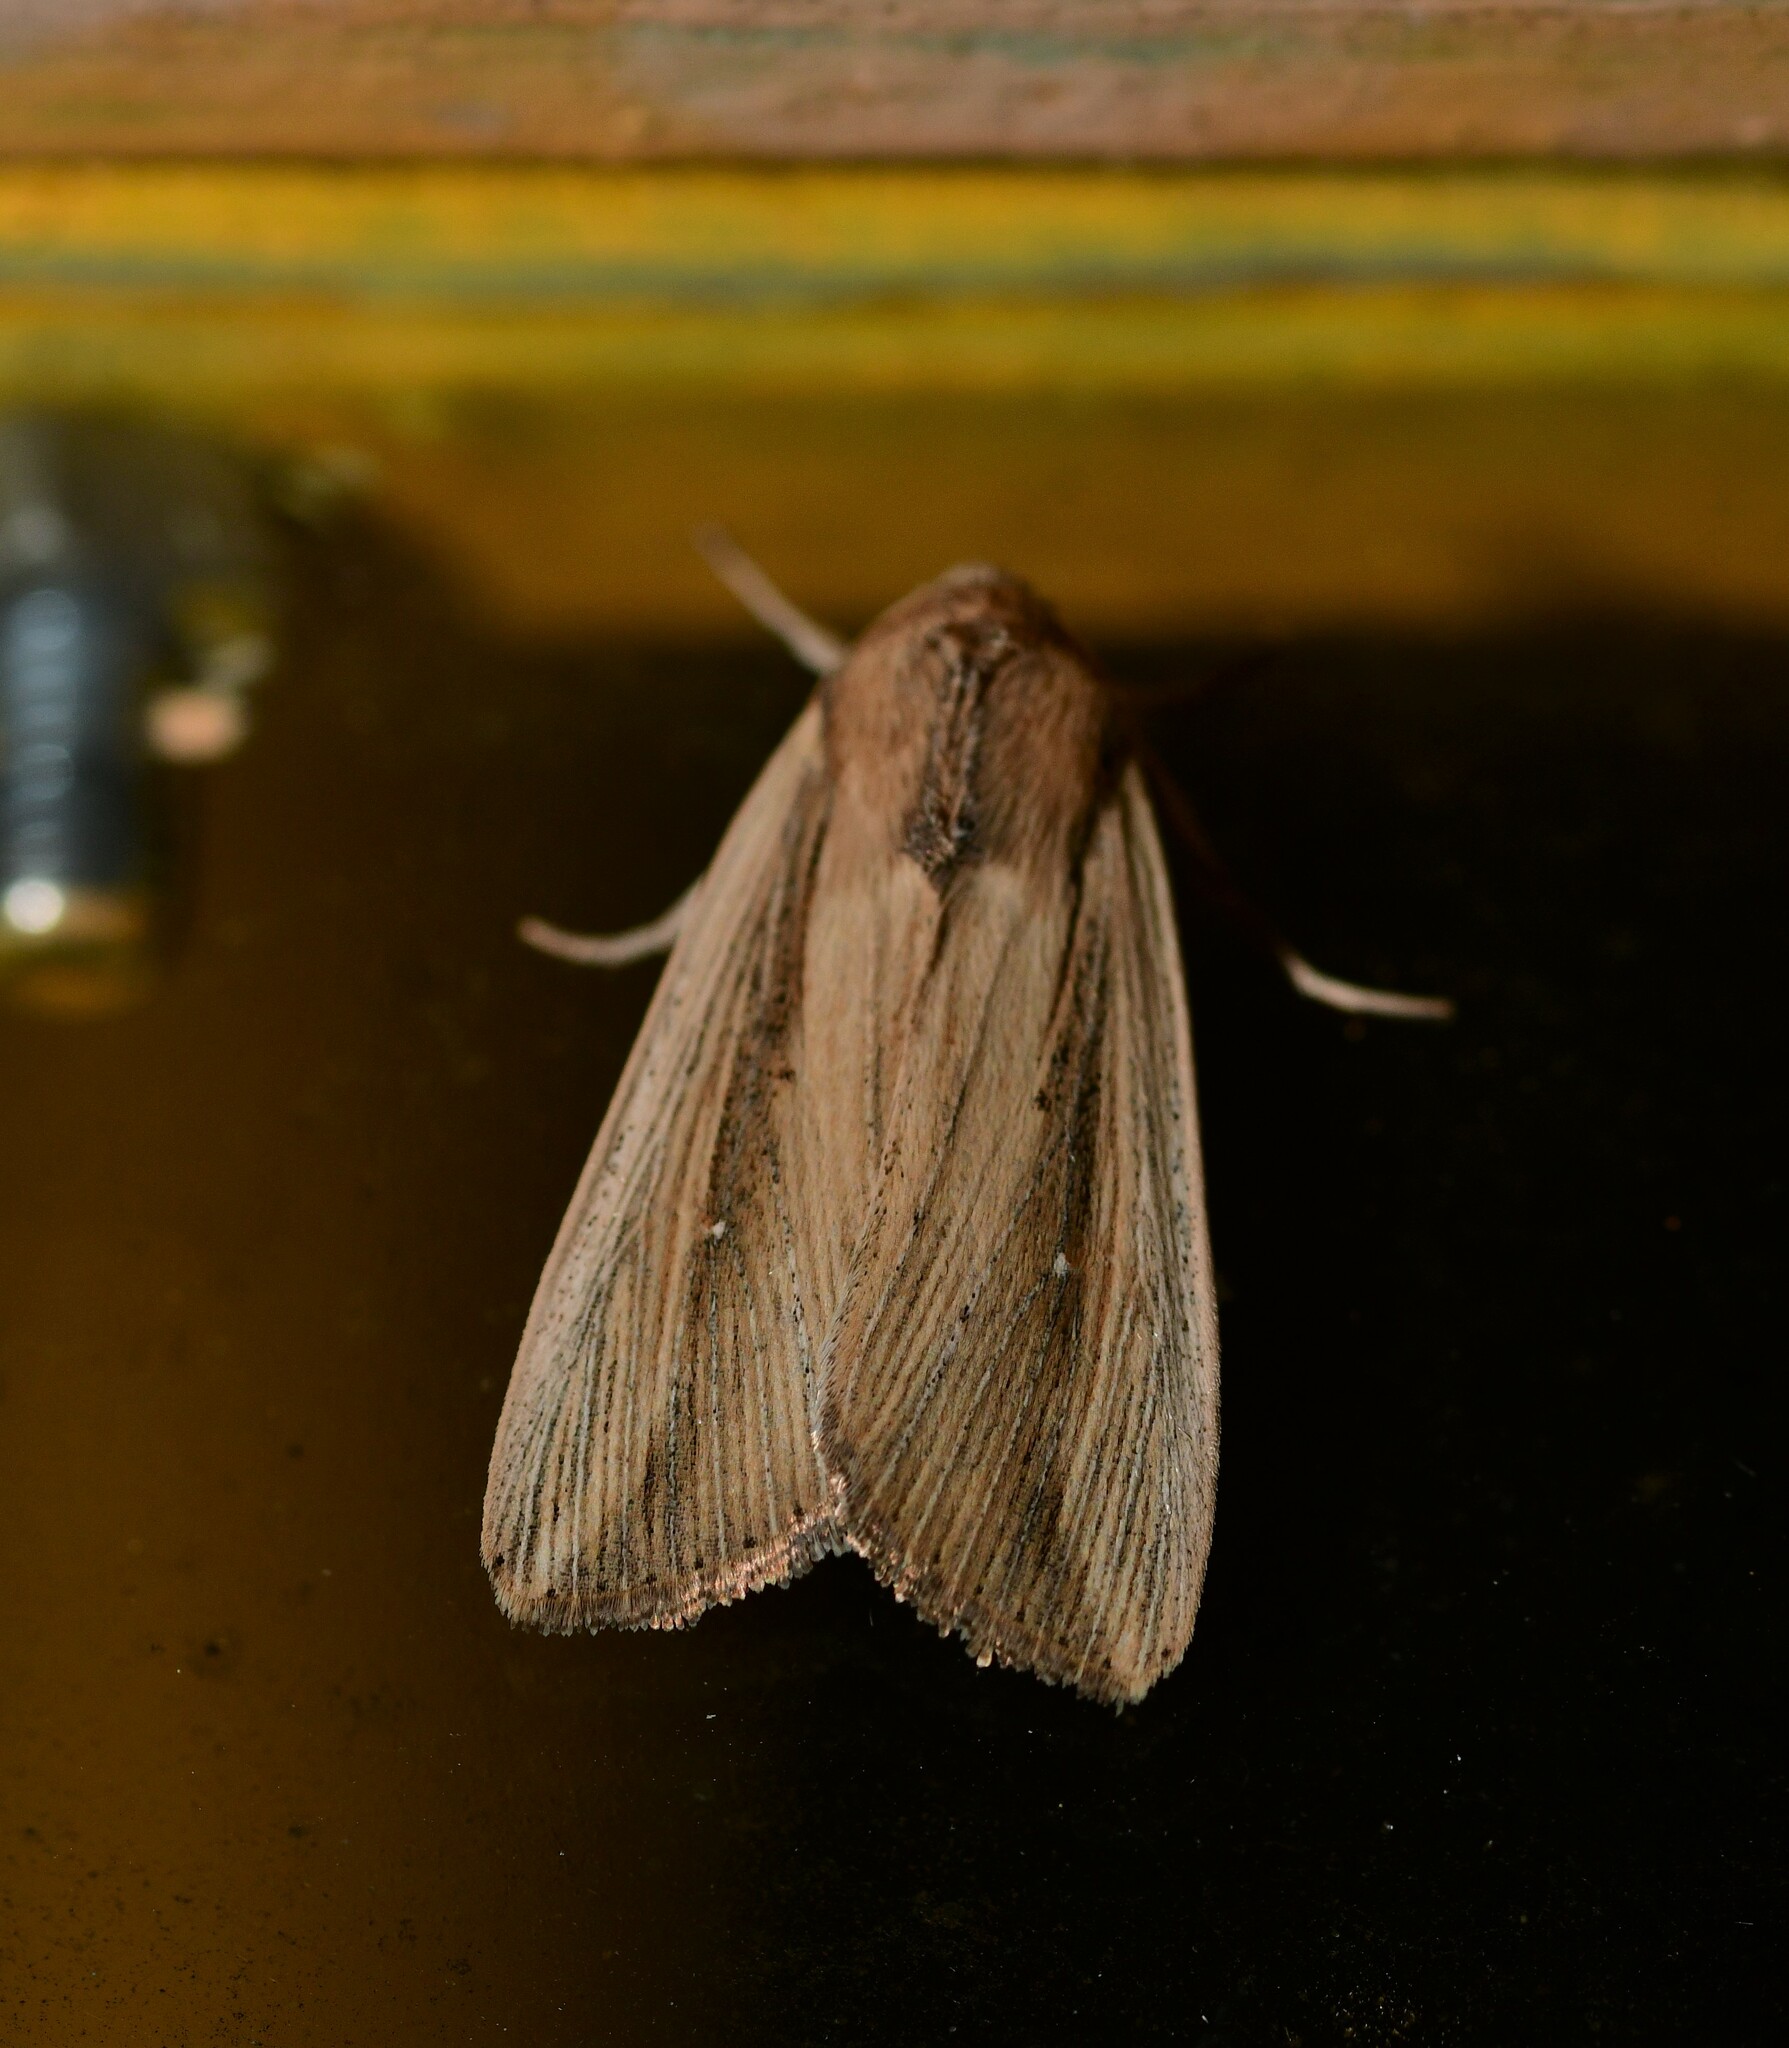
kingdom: Animalia
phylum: Arthropoda
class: Insecta
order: Lepidoptera
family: Noctuidae
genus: Leucania
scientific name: Leucania loreyi
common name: The cosmopolitan
